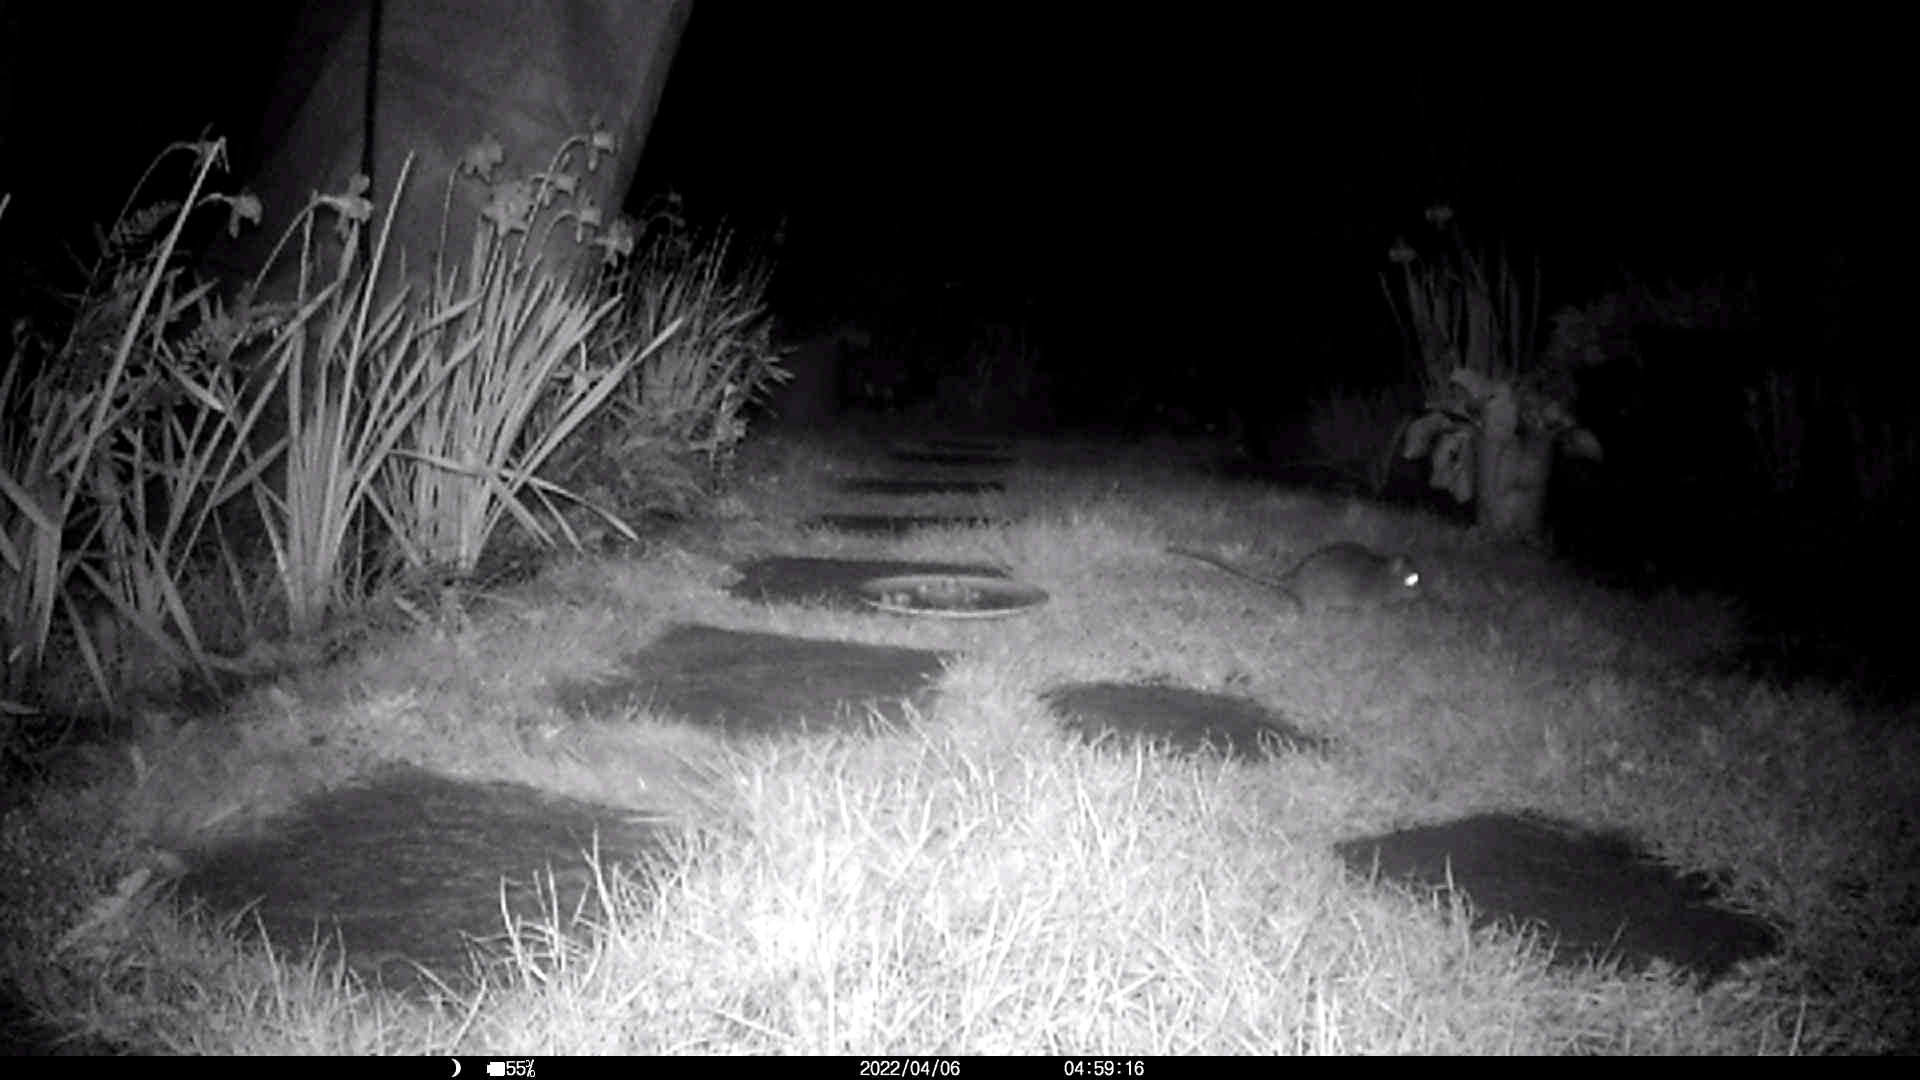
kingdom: Animalia
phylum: Chordata
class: Mammalia
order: Rodentia
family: Muridae
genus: Rattus
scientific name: Rattus norvegicus
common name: Brown rat
